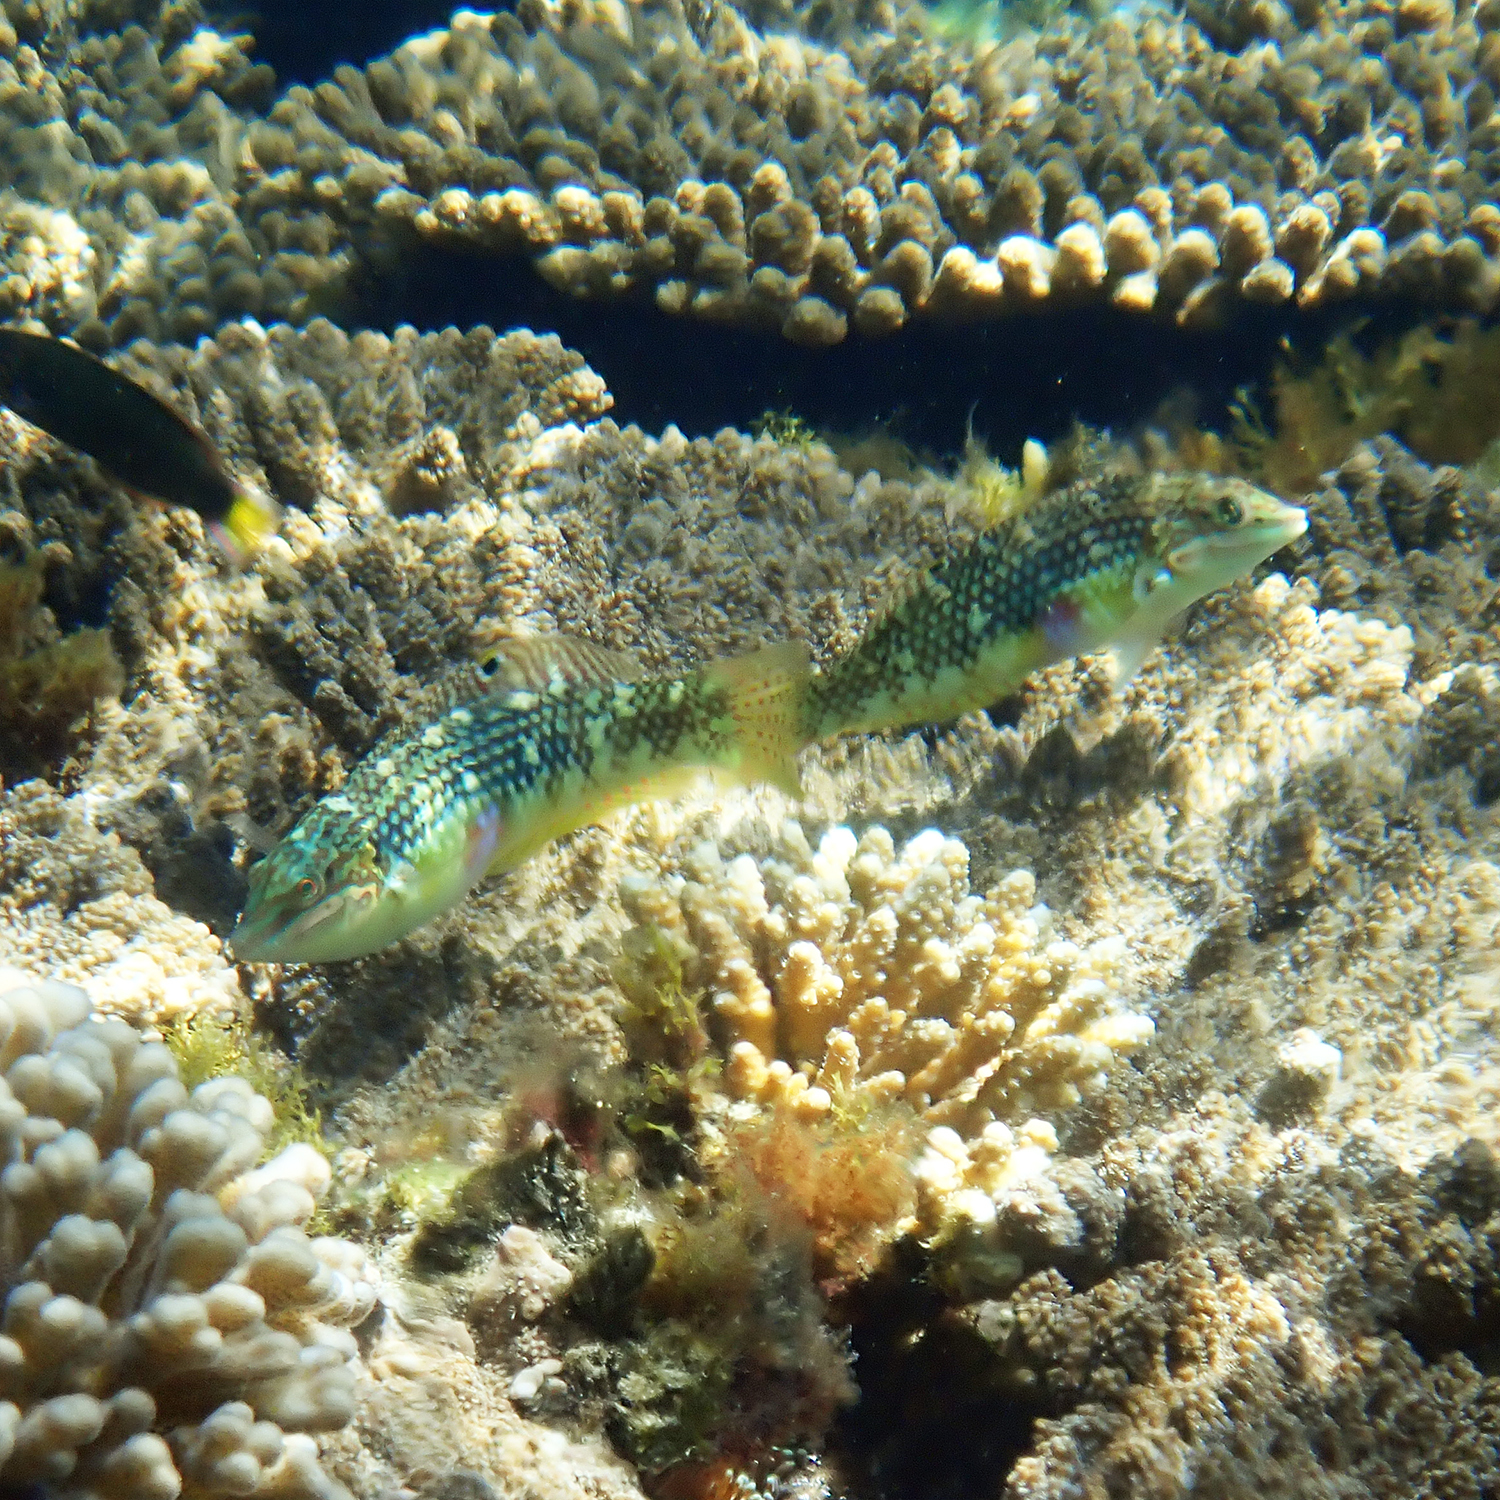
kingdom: Animalia
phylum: Chordata
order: Perciformes
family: Labridae
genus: Halichoeres
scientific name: Halichoeres margaritaceus
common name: Pink-belly wrasse
